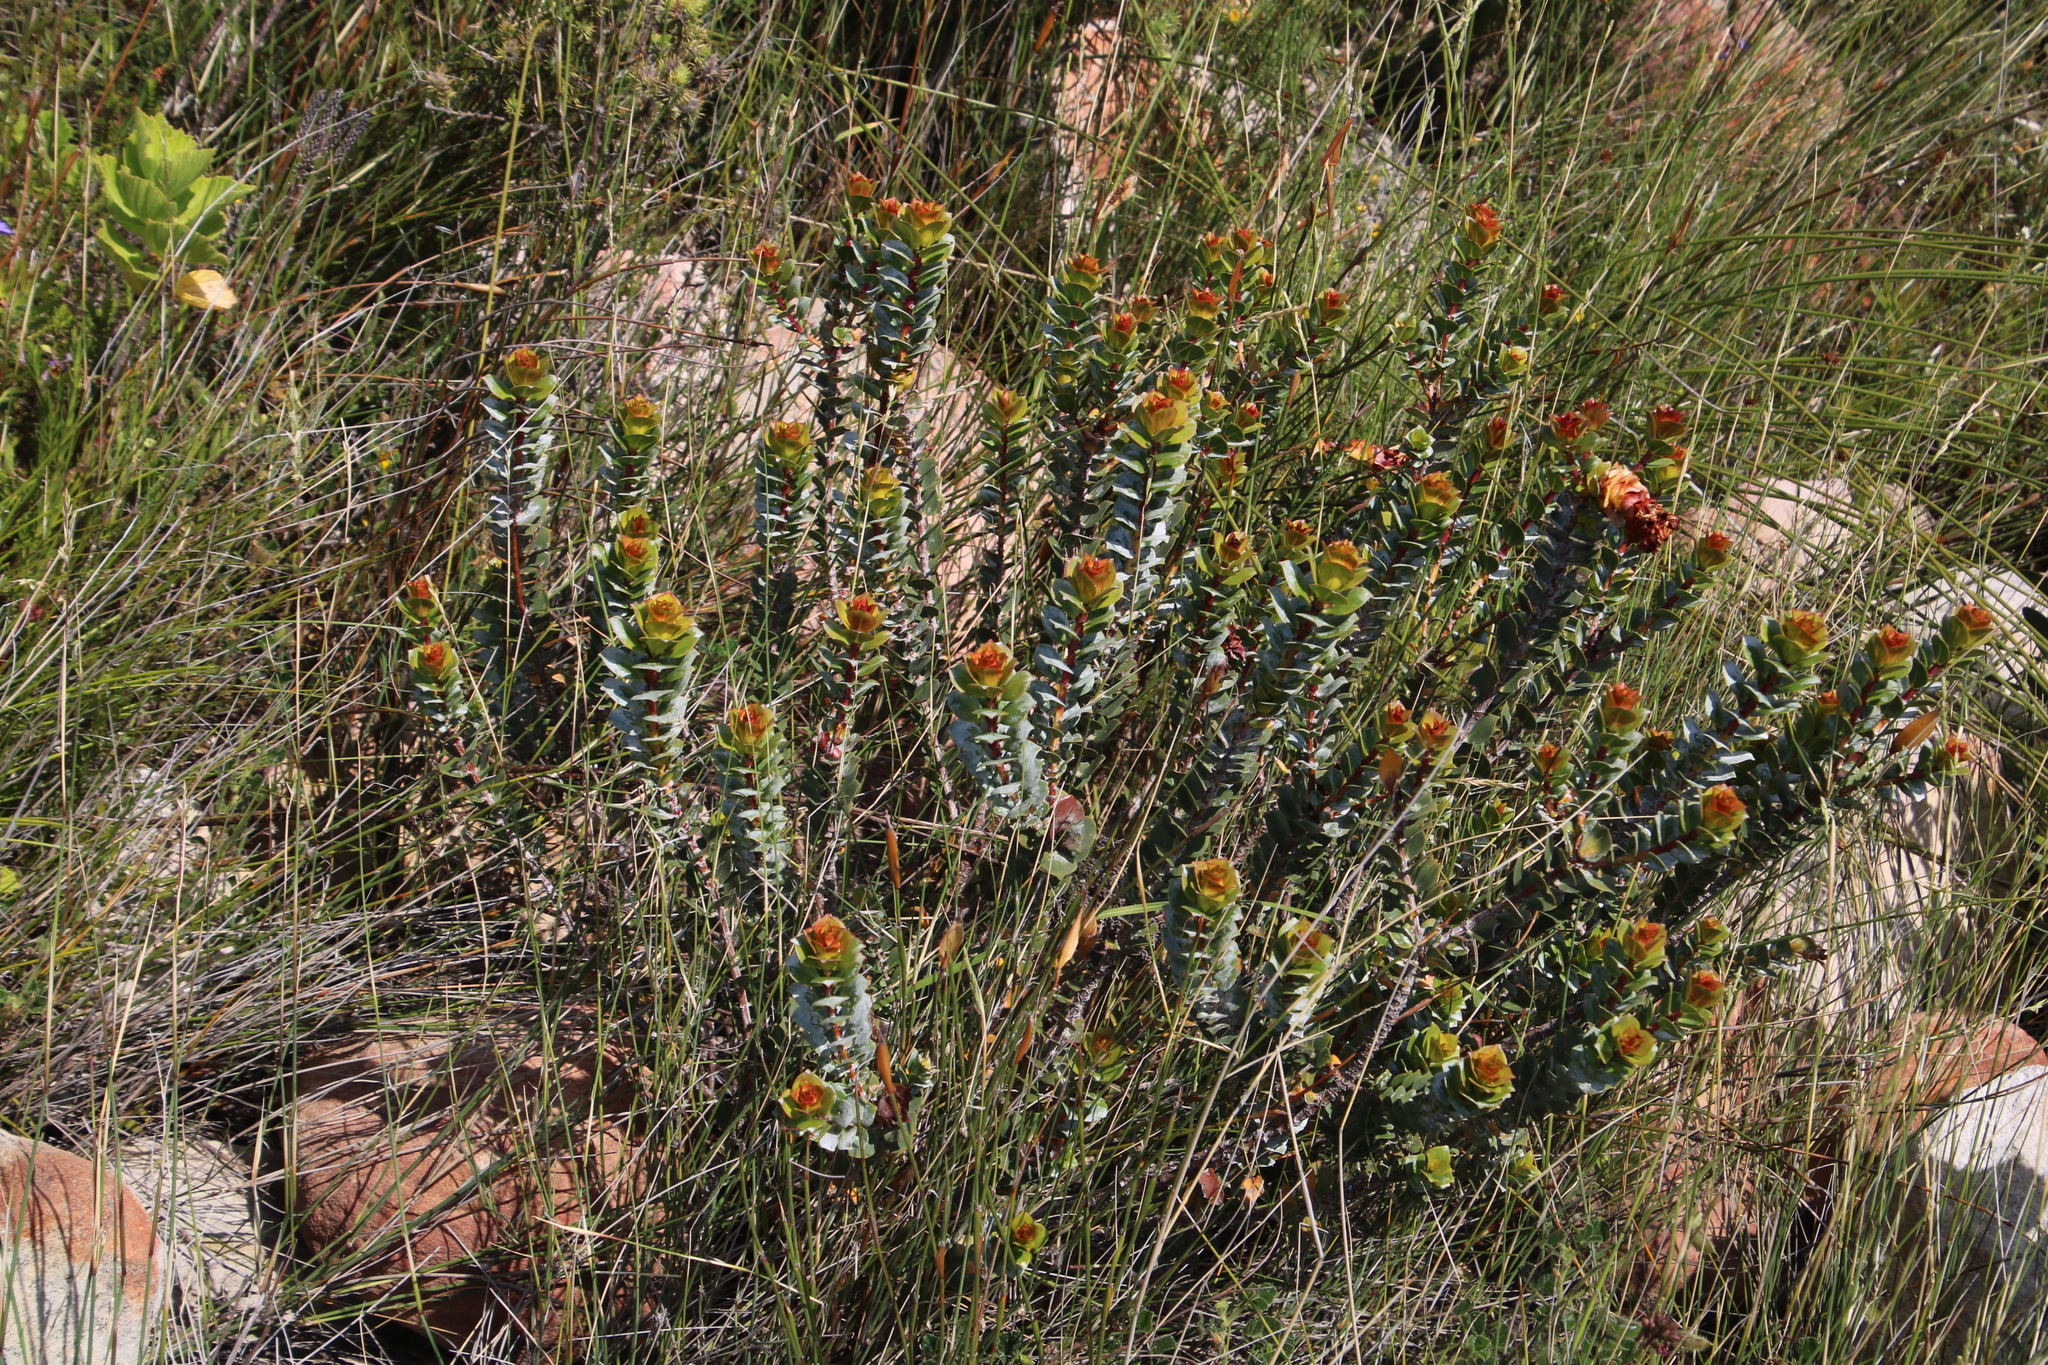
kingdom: Plantae
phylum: Tracheophyta
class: Magnoliopsida
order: Myrtales
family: Penaeaceae
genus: Saltera
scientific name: Saltera sarcocolla
